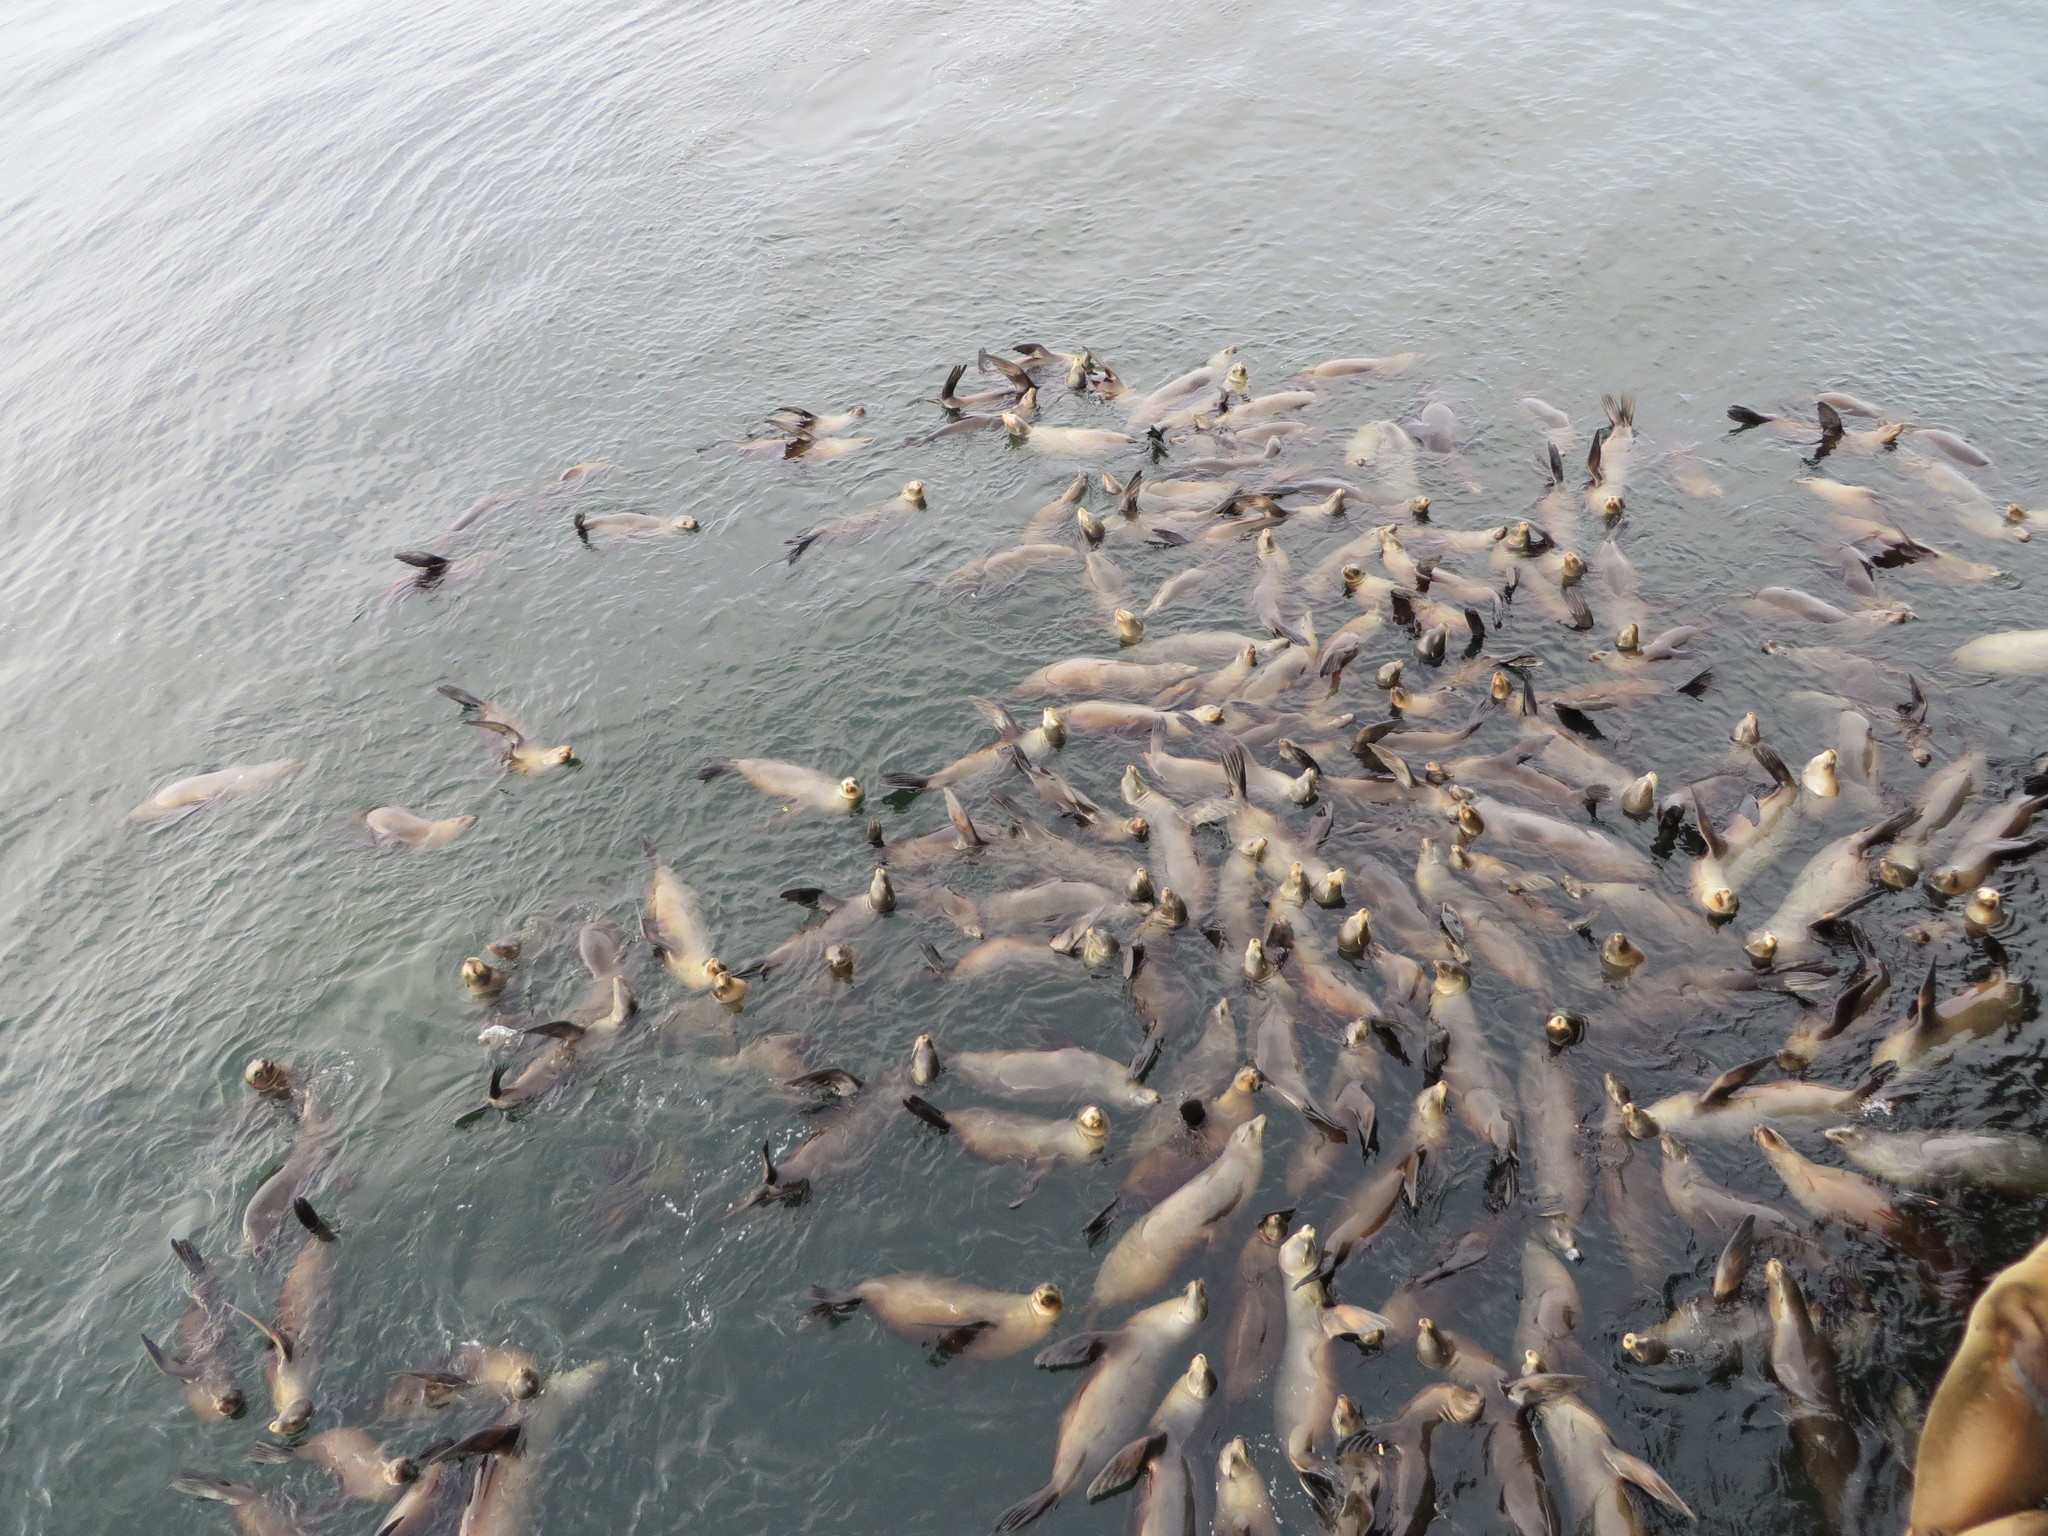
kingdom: Animalia
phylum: Chordata
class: Mammalia
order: Carnivora
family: Otariidae
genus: Zalophus
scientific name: Zalophus californianus
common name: California sea lion
